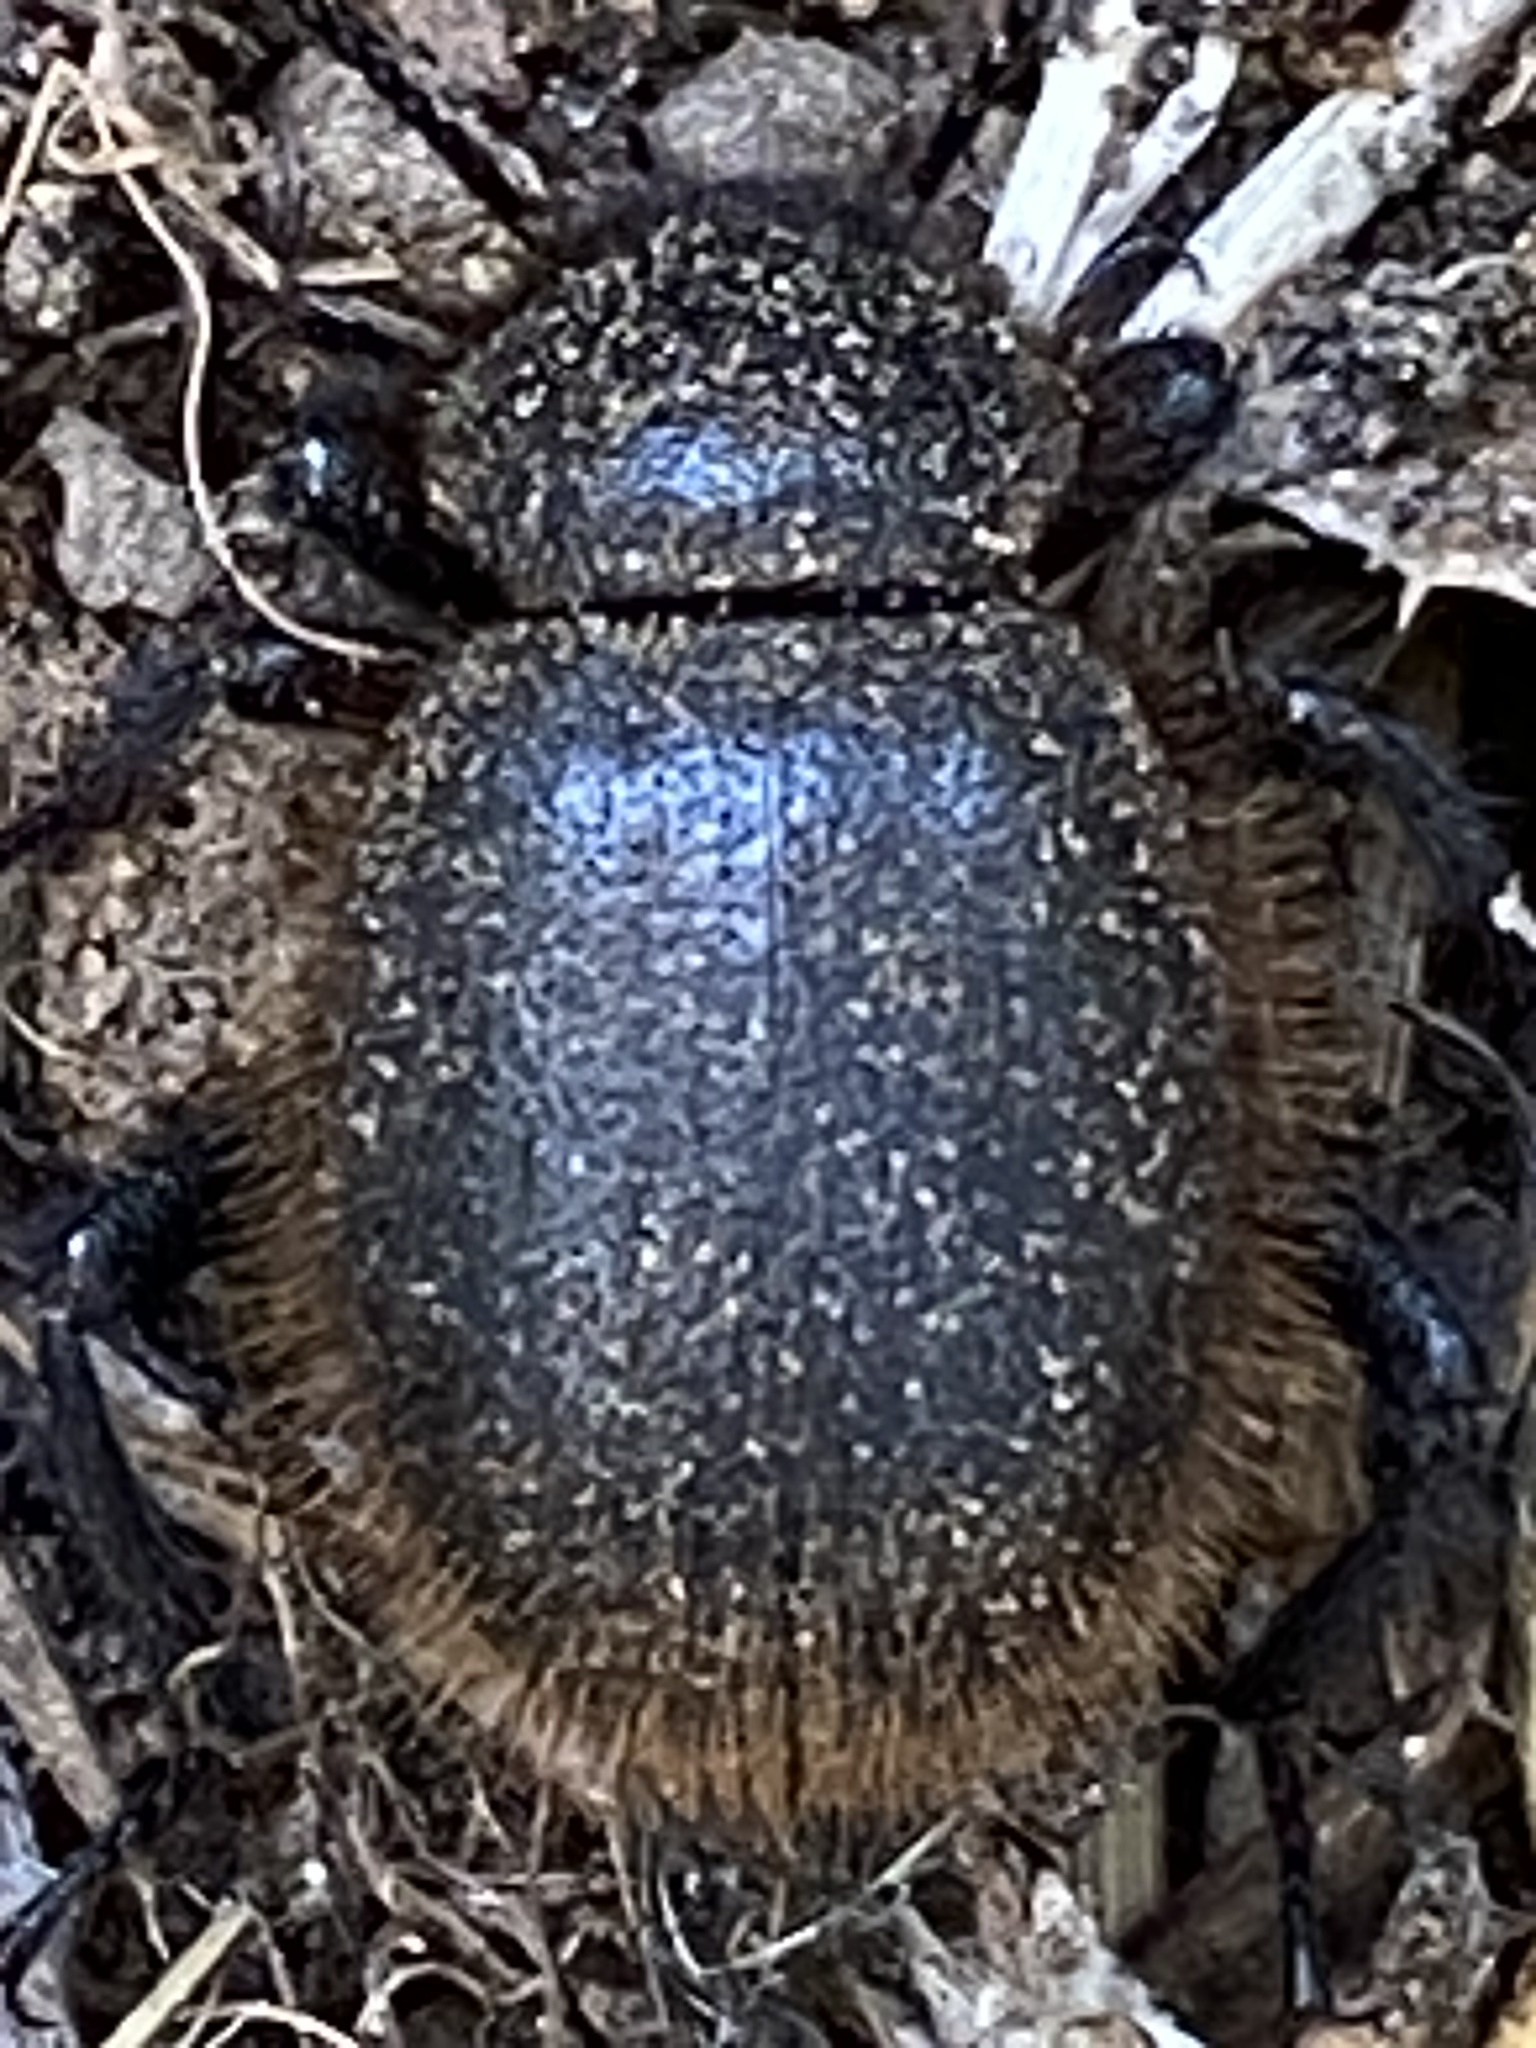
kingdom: Animalia
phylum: Arthropoda
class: Insecta
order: Coleoptera
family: Tenebrionidae
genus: Eleodes
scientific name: Eleodes osculans
